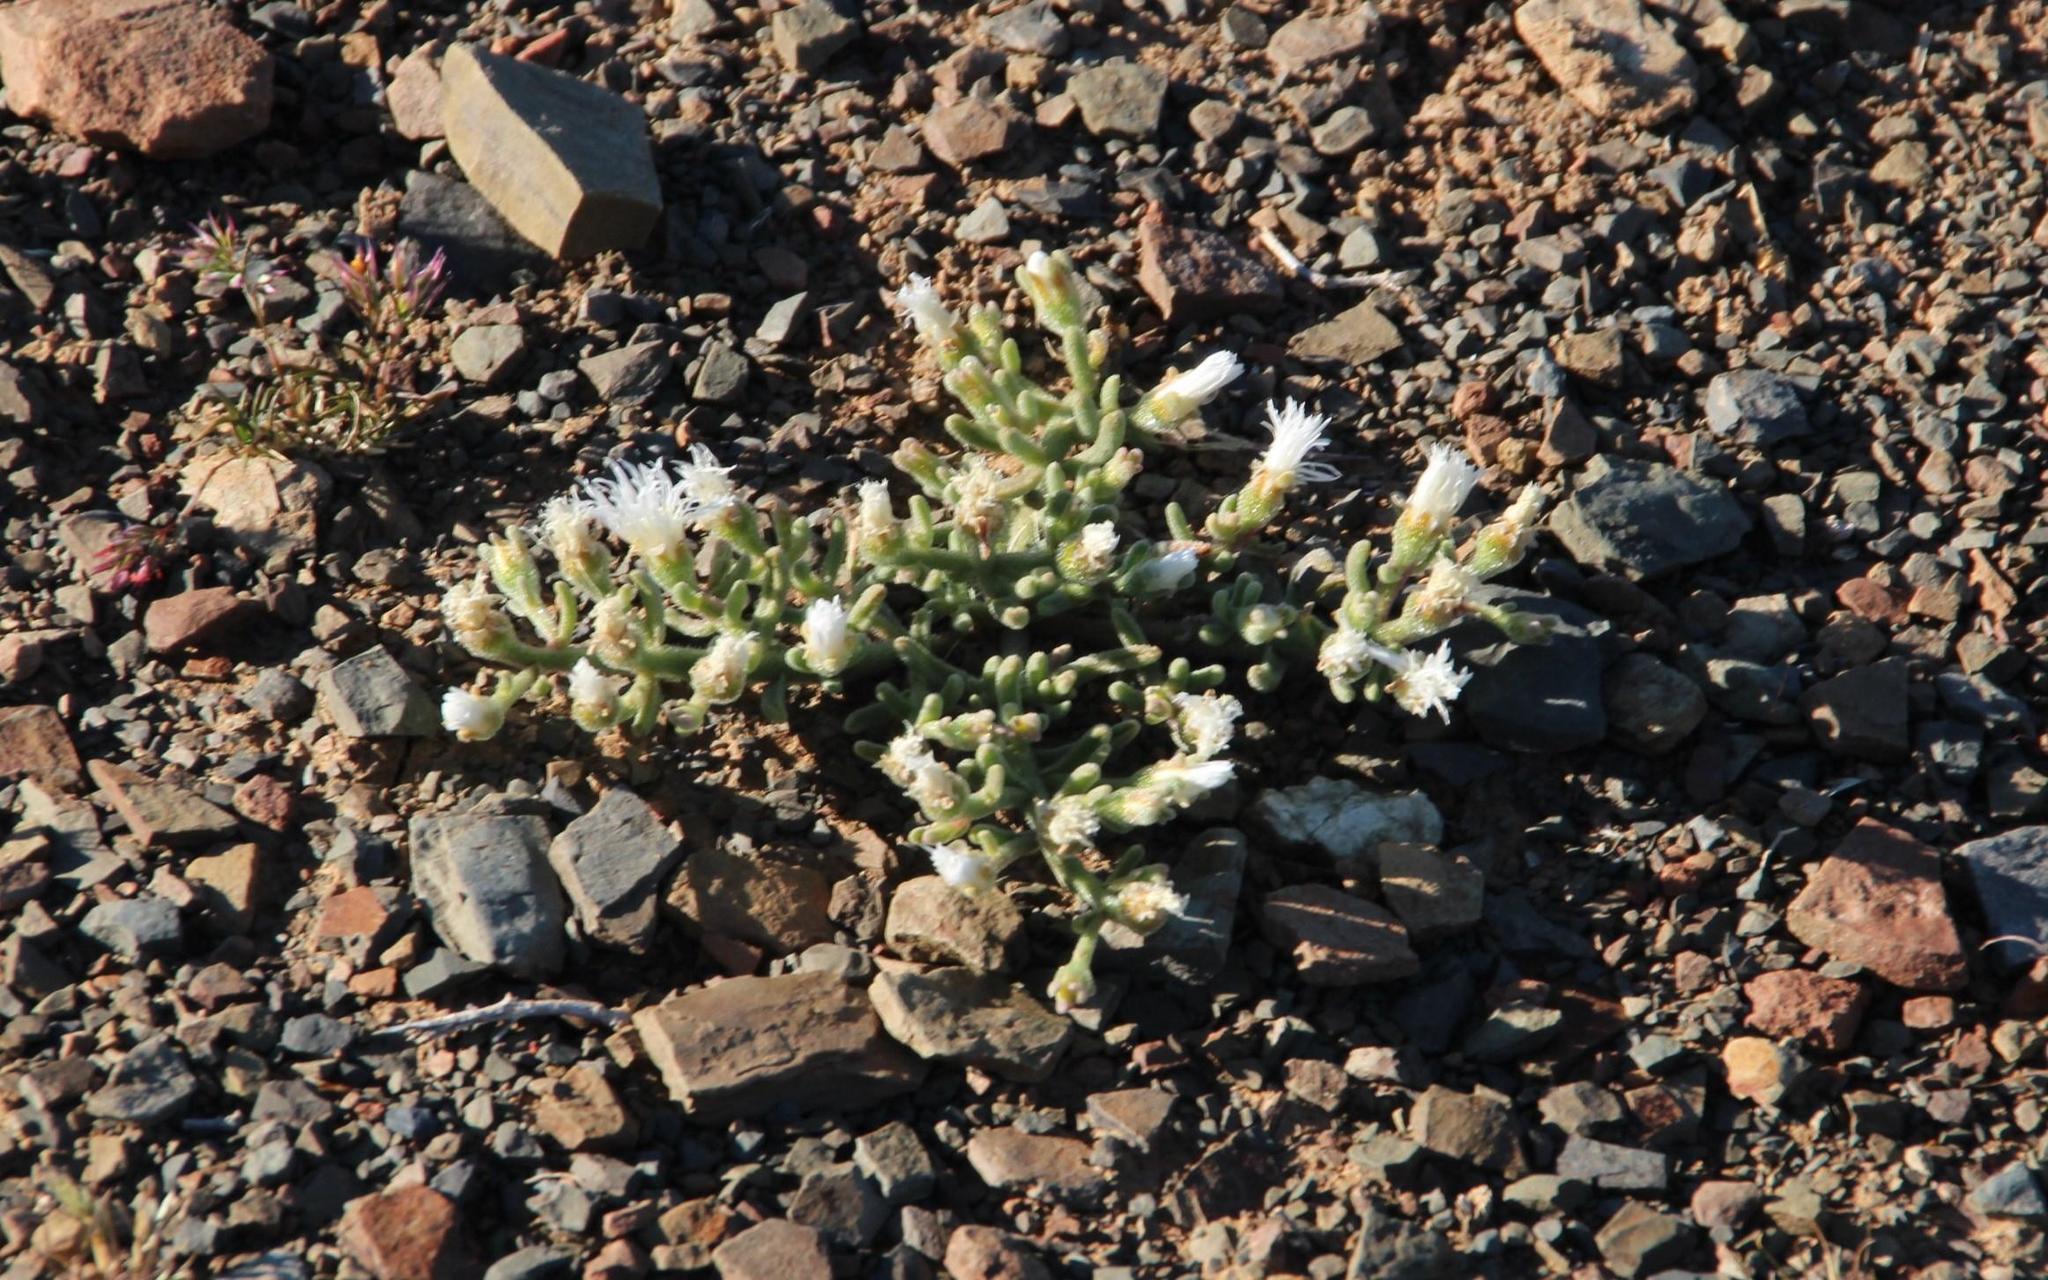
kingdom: Plantae
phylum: Tracheophyta
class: Magnoliopsida
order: Caryophyllales
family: Aizoaceae
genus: Mesembryanthemum
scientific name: Mesembryanthemum nodiflorum
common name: Slenderleaf iceplant
